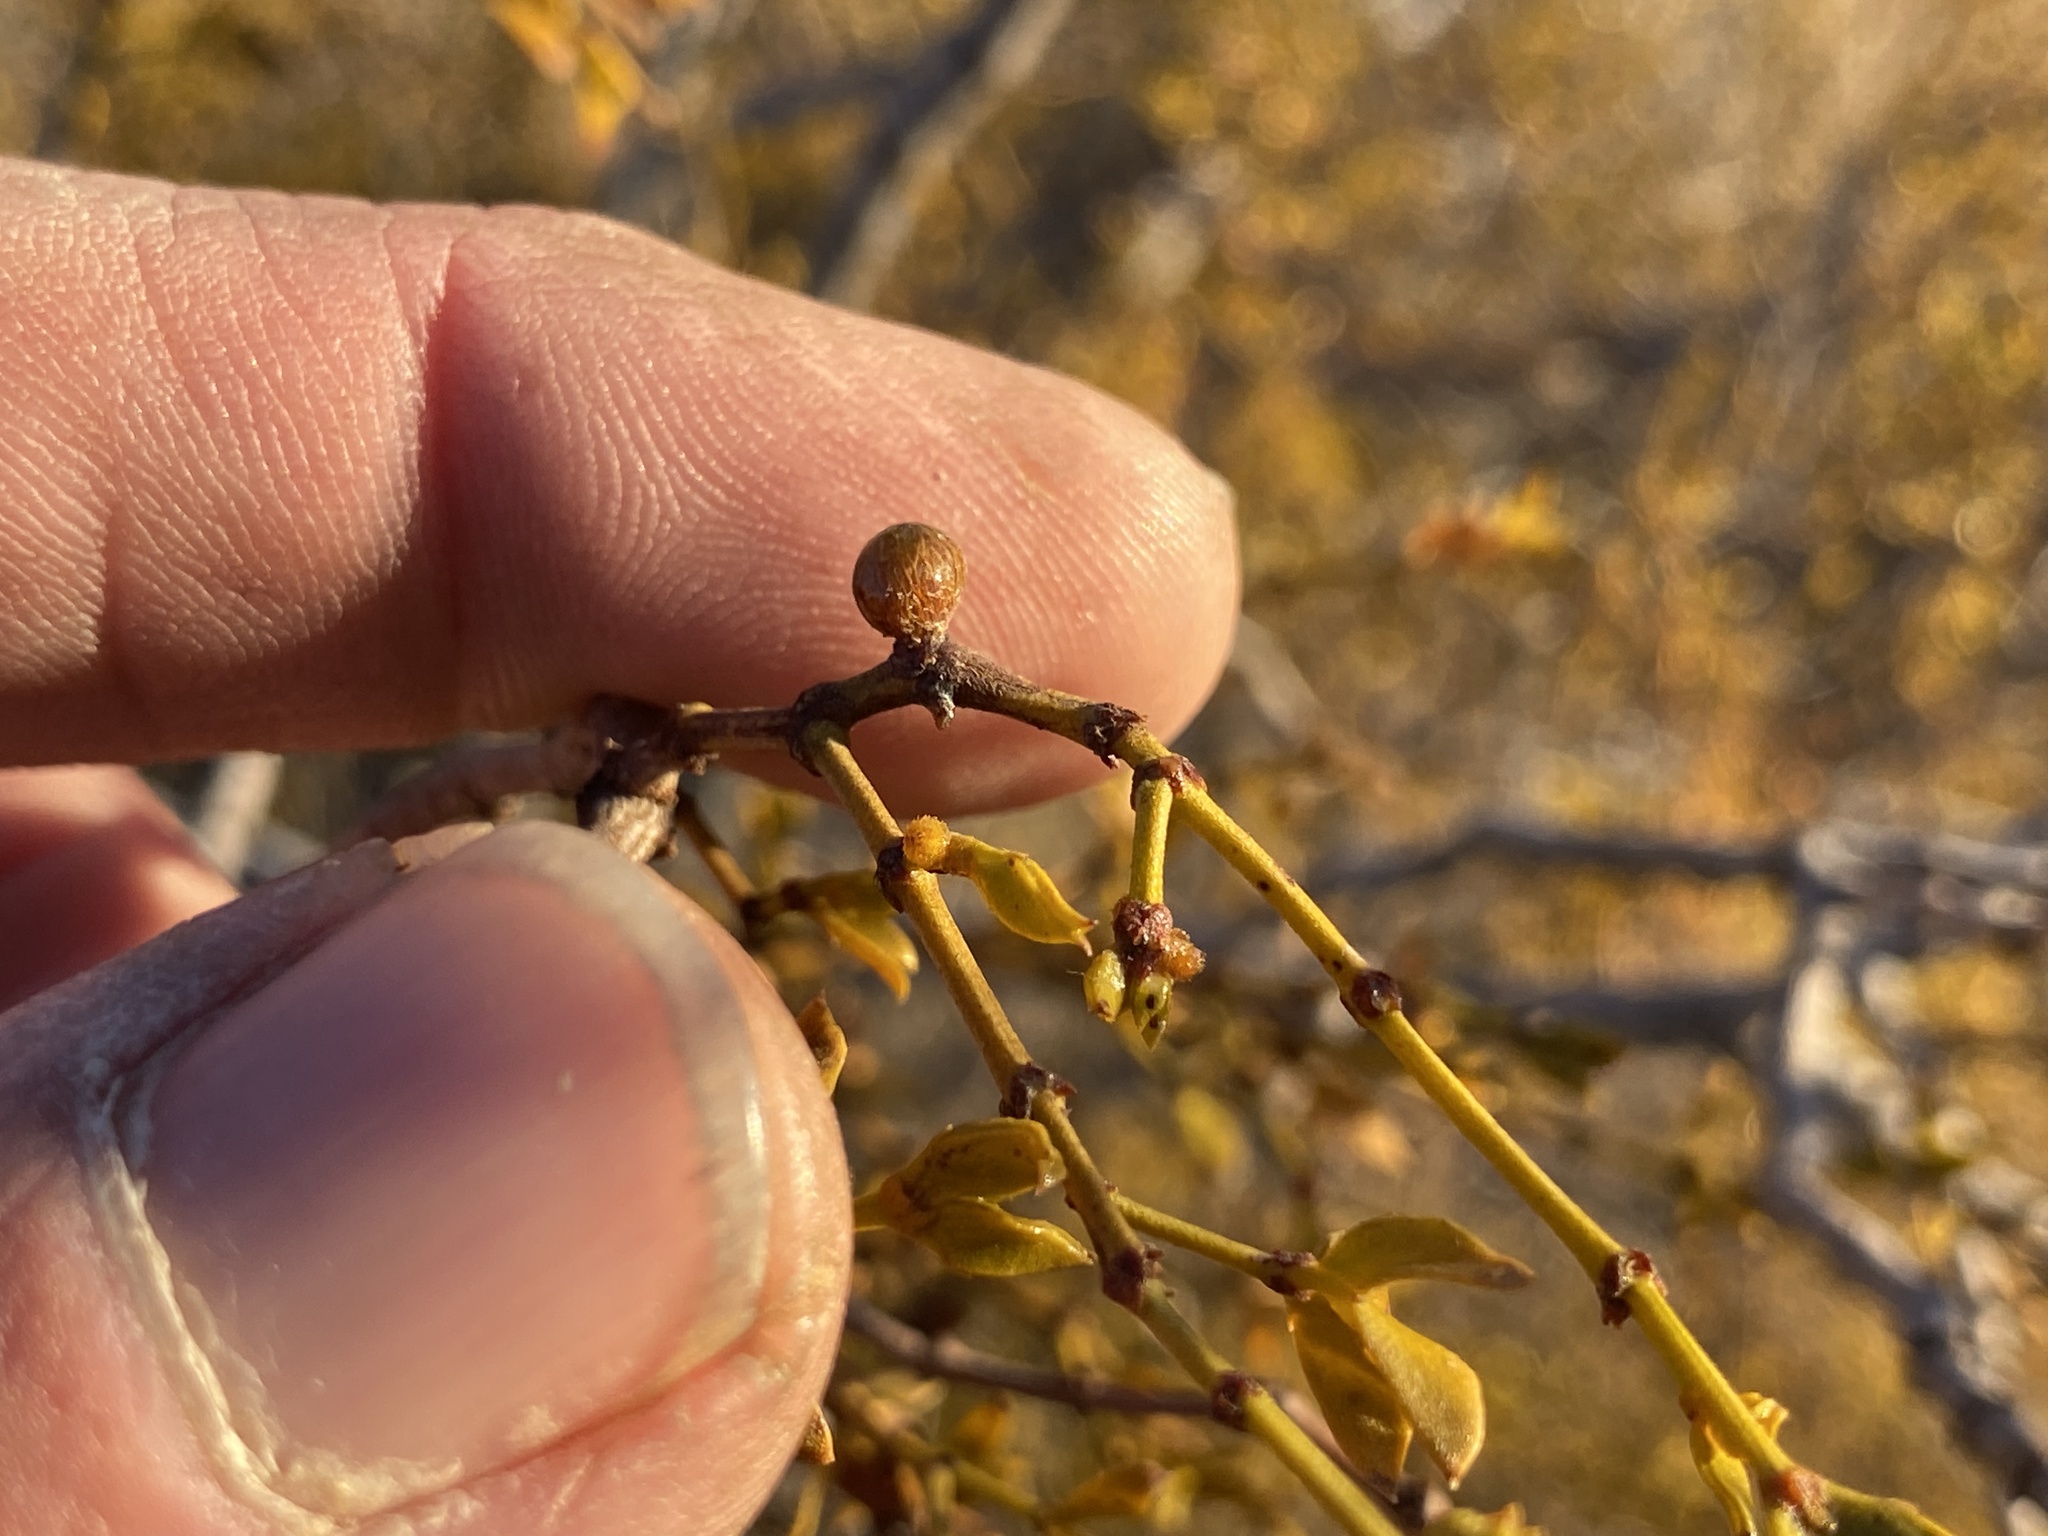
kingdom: Animalia
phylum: Arthropoda
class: Insecta
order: Diptera
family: Cecidomyiidae
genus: Asphondylia
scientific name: Asphondylia resinosa
